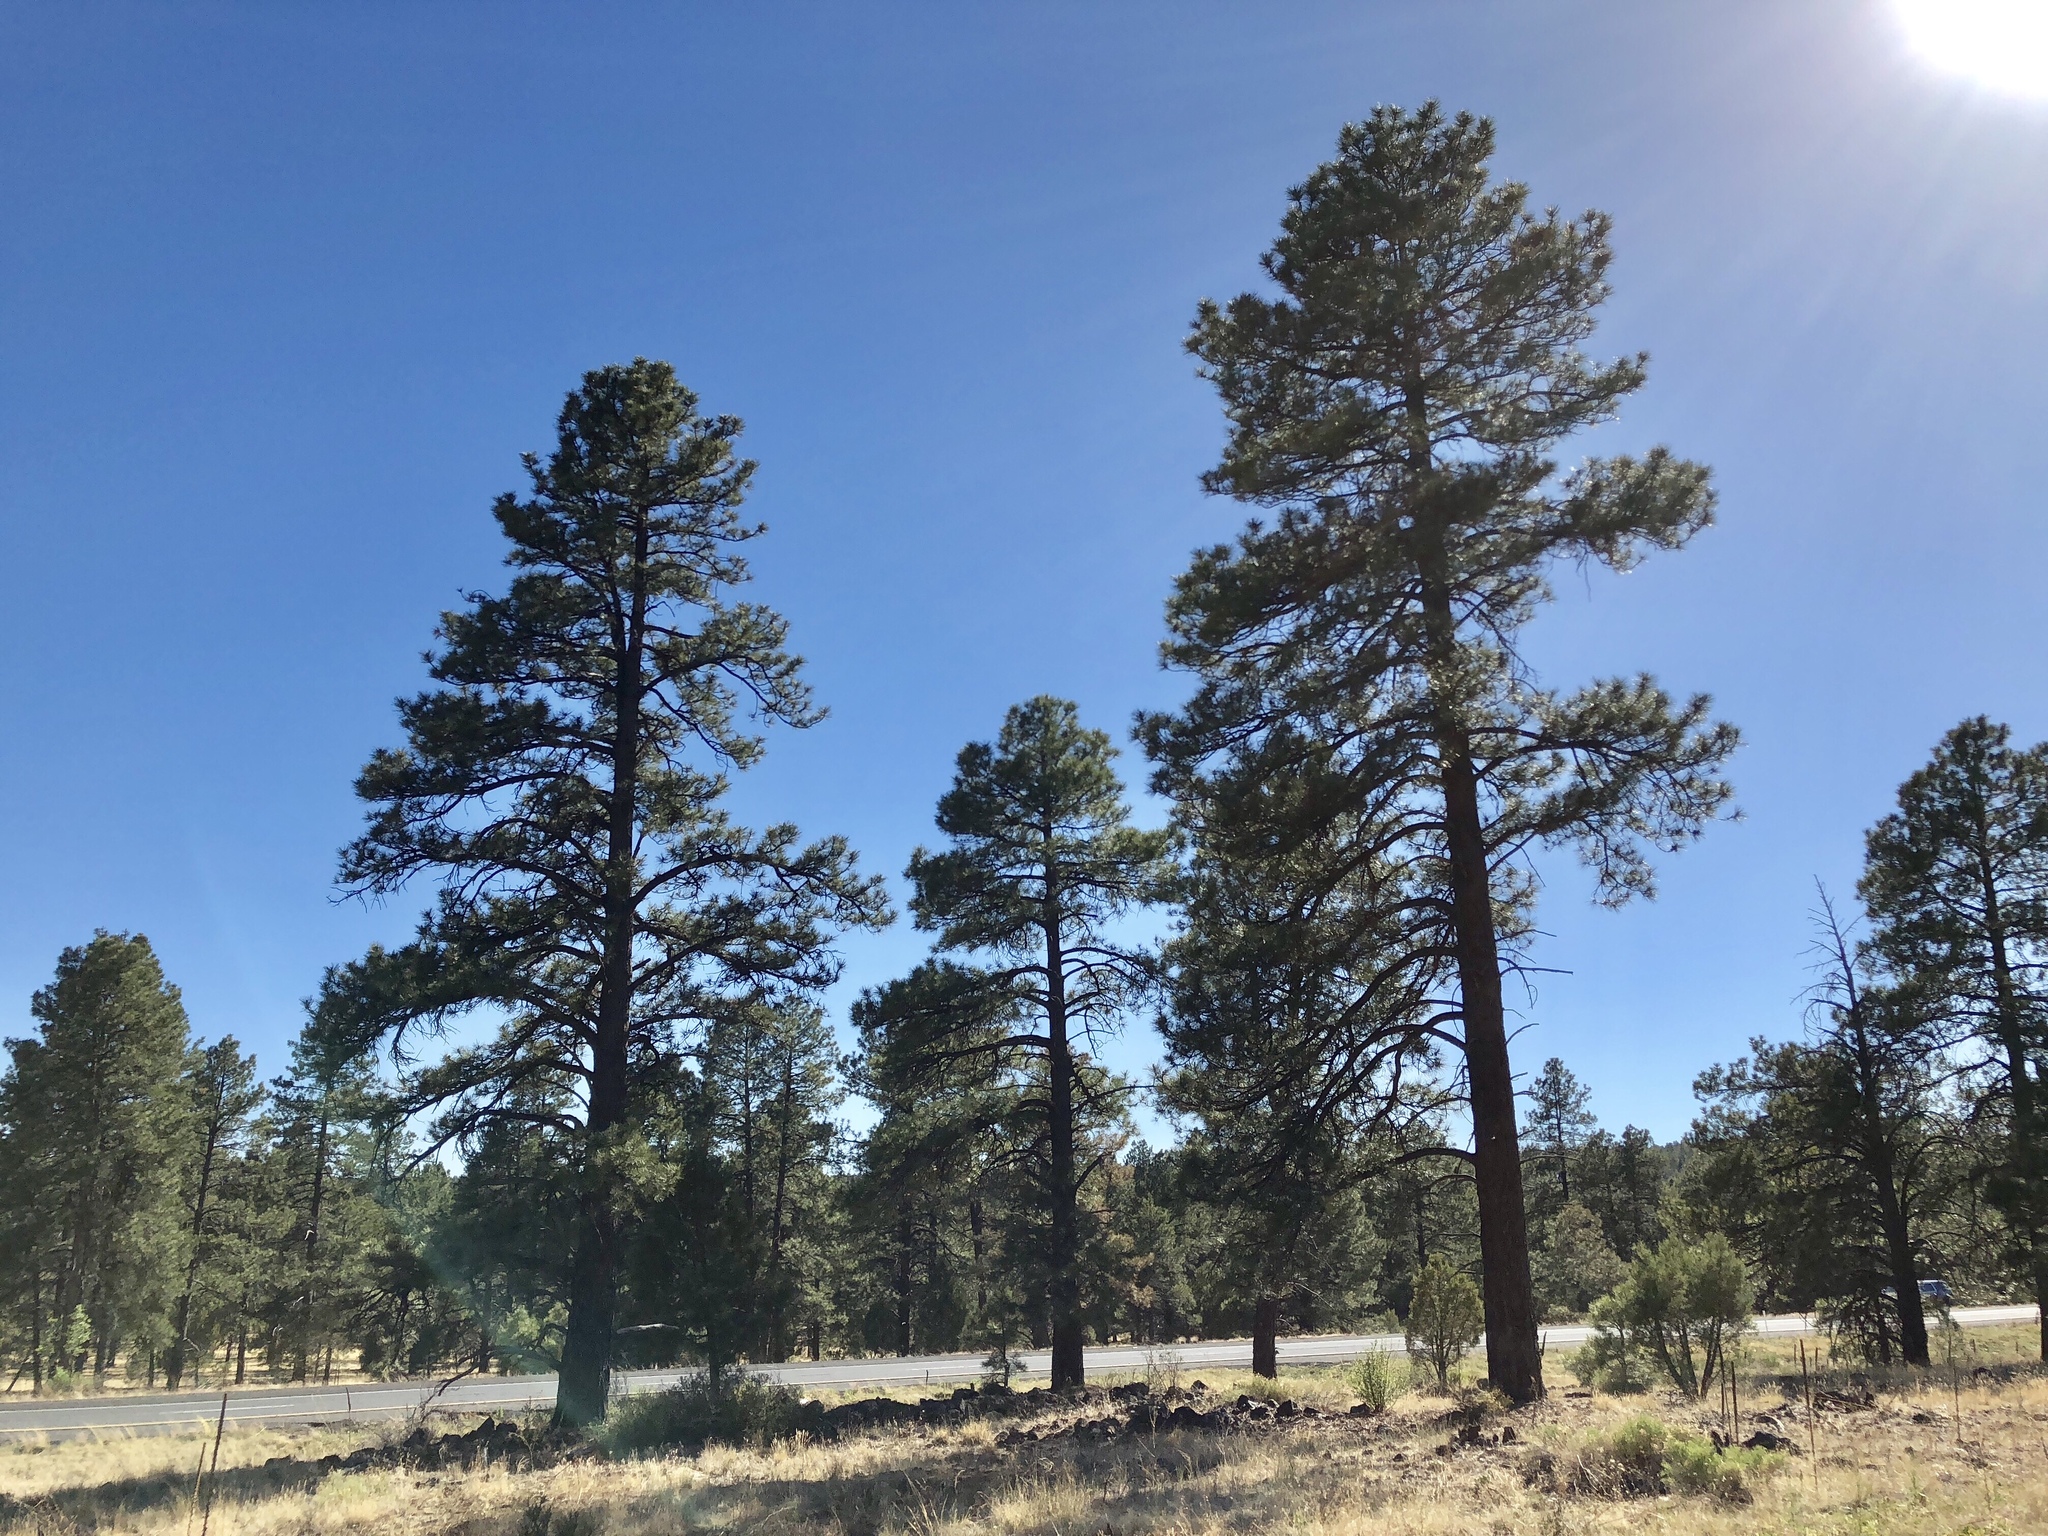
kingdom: Plantae
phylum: Tracheophyta
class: Pinopsida
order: Pinales
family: Pinaceae
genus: Pinus
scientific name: Pinus ponderosa
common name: Western yellow-pine
